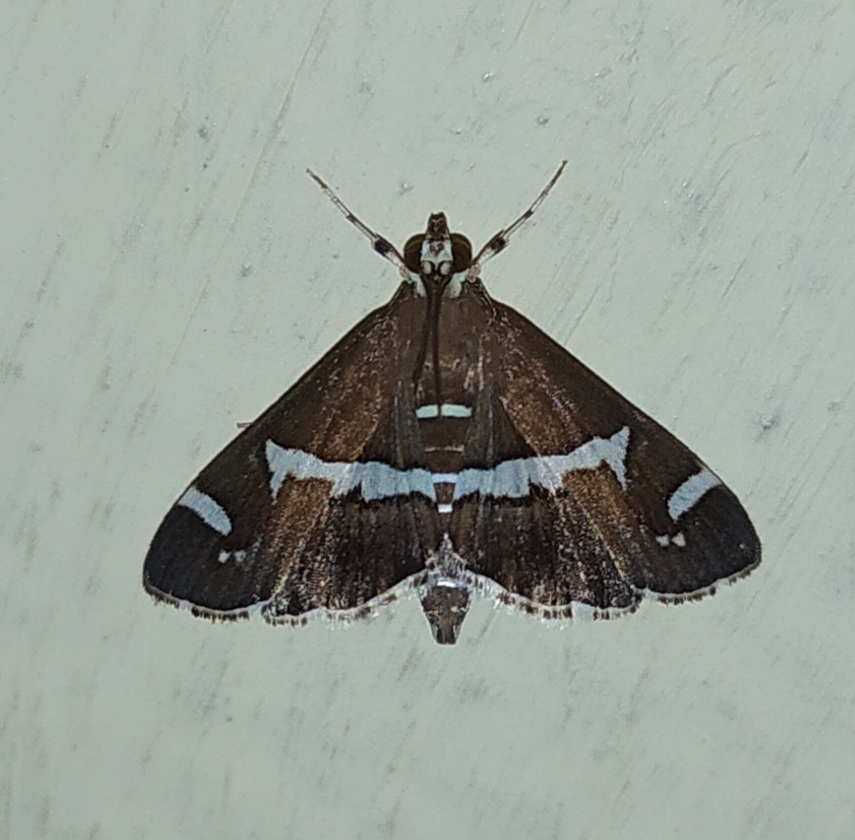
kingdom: Animalia
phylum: Arthropoda
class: Insecta
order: Lepidoptera
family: Crambidae
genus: Spoladea
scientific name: Spoladea recurvalis
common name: Beet webworm moth
